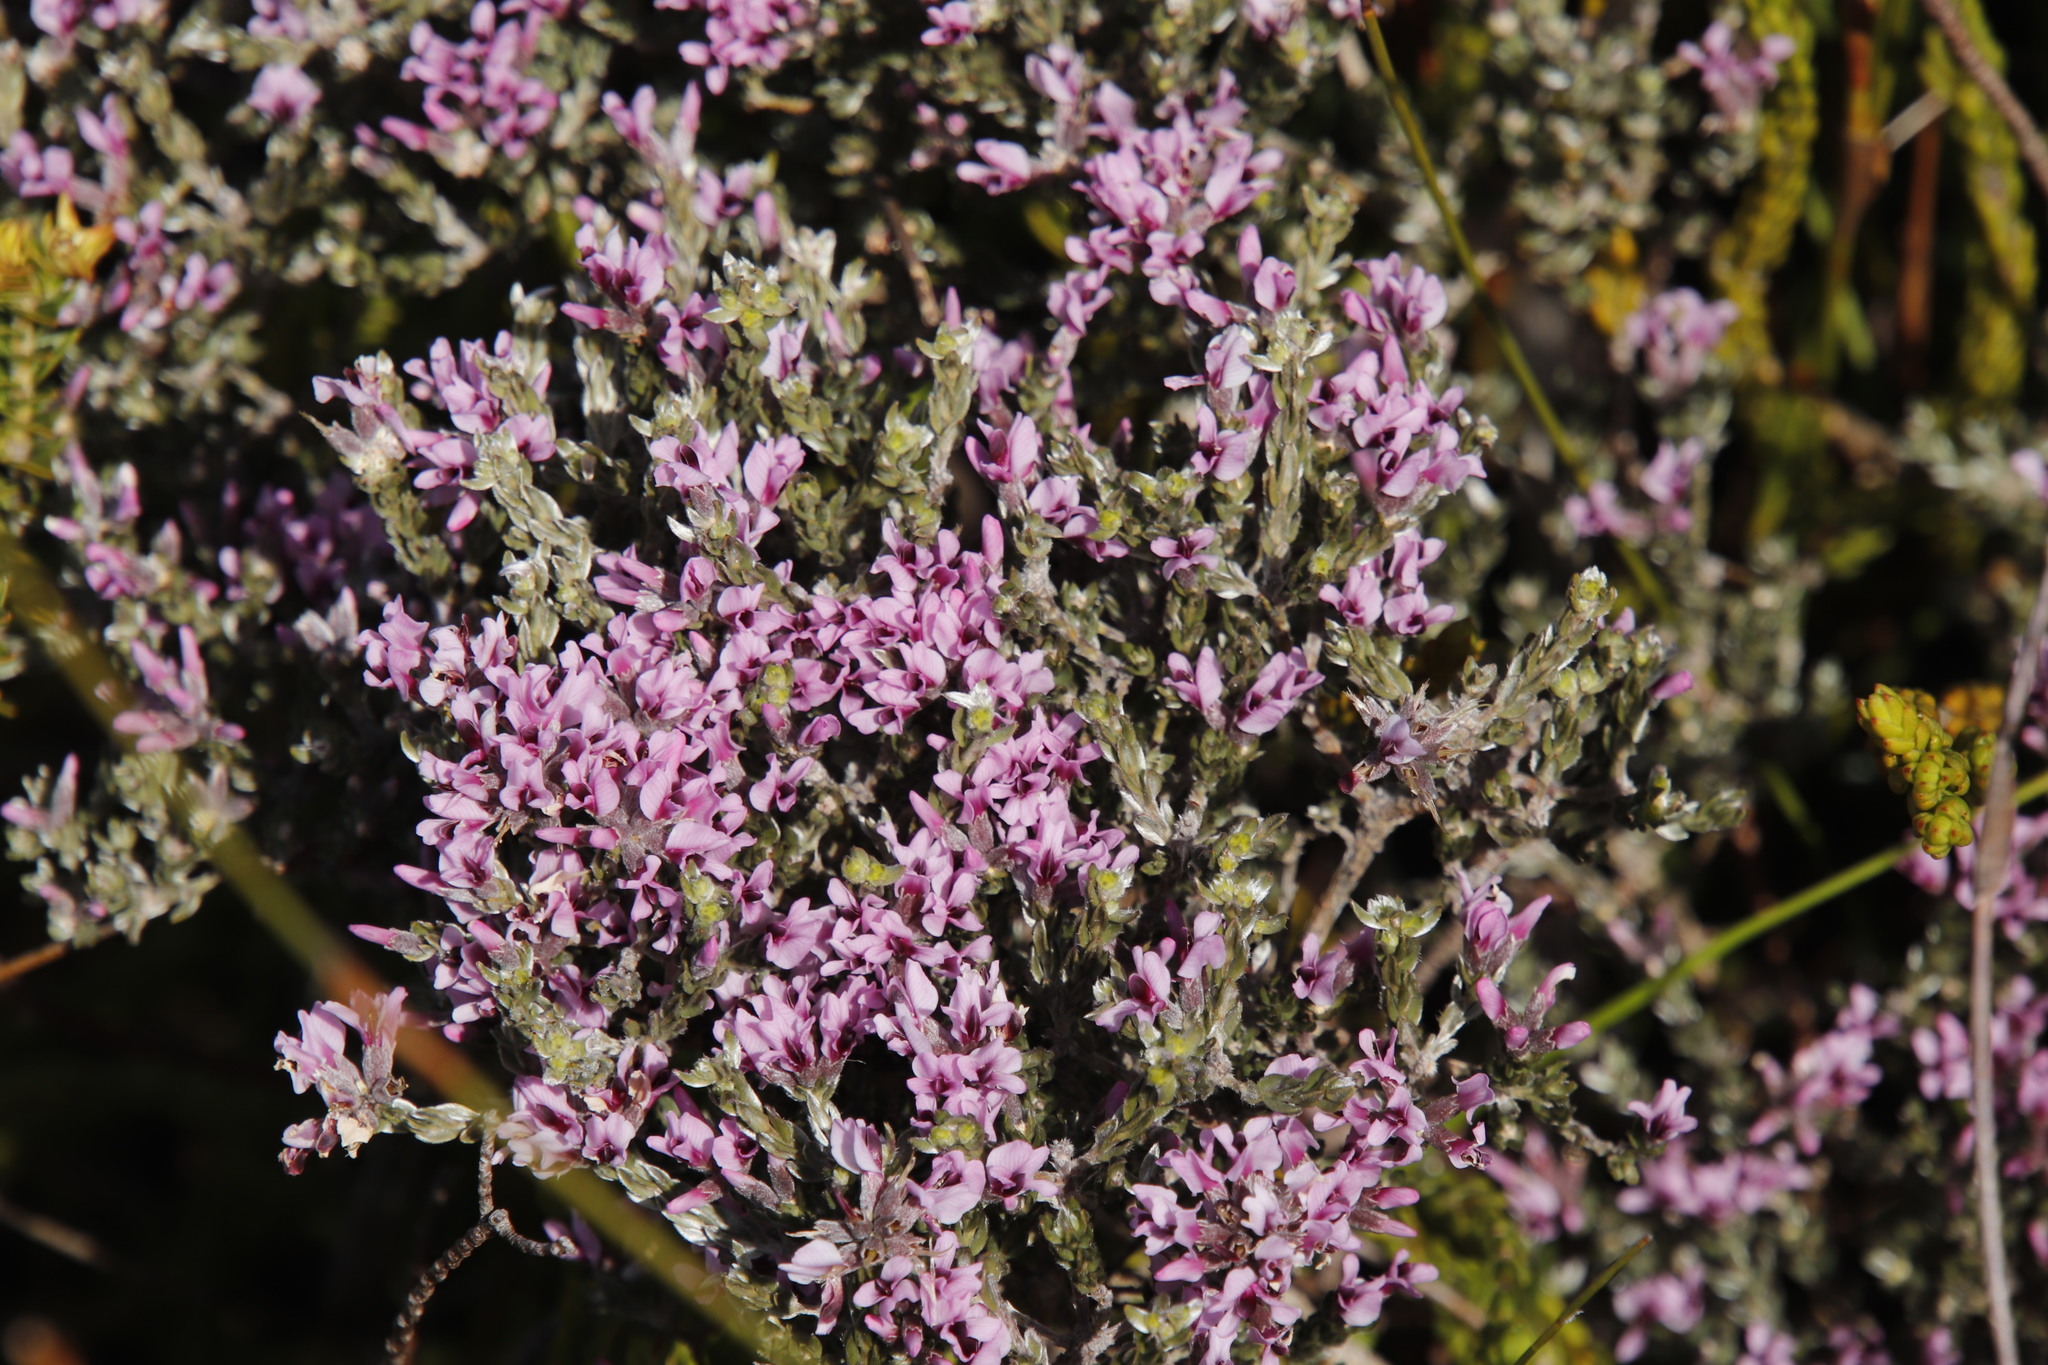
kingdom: Plantae
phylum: Tracheophyta
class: Magnoliopsida
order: Fabales
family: Fabaceae
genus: Amphithalea
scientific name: Amphithalea ericifolia
